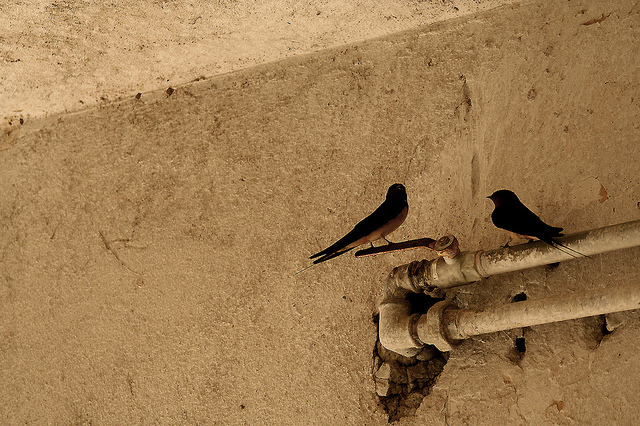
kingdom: Animalia
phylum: Chordata
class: Aves
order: Passeriformes
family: Hirundinidae
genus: Hirundo
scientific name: Hirundo rustica
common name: Barn swallow
